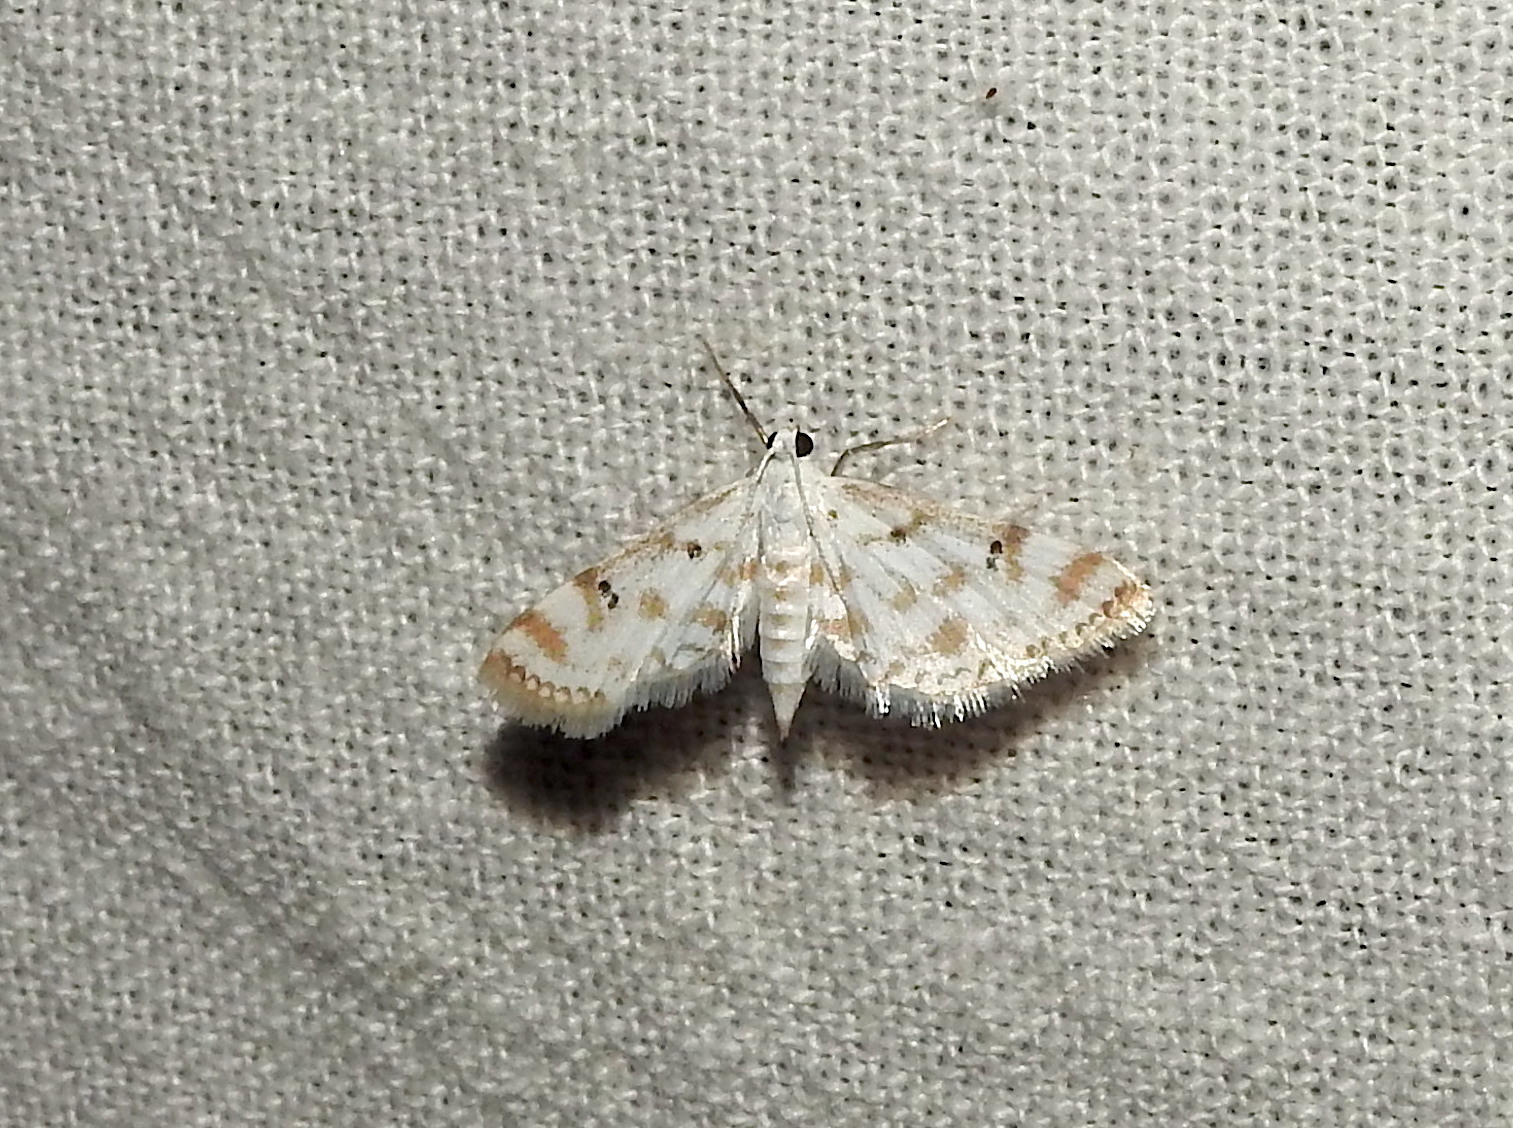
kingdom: Animalia
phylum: Arthropoda
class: Insecta
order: Lepidoptera
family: Crambidae
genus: Parapoynx
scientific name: Parapoynx stagnalis
